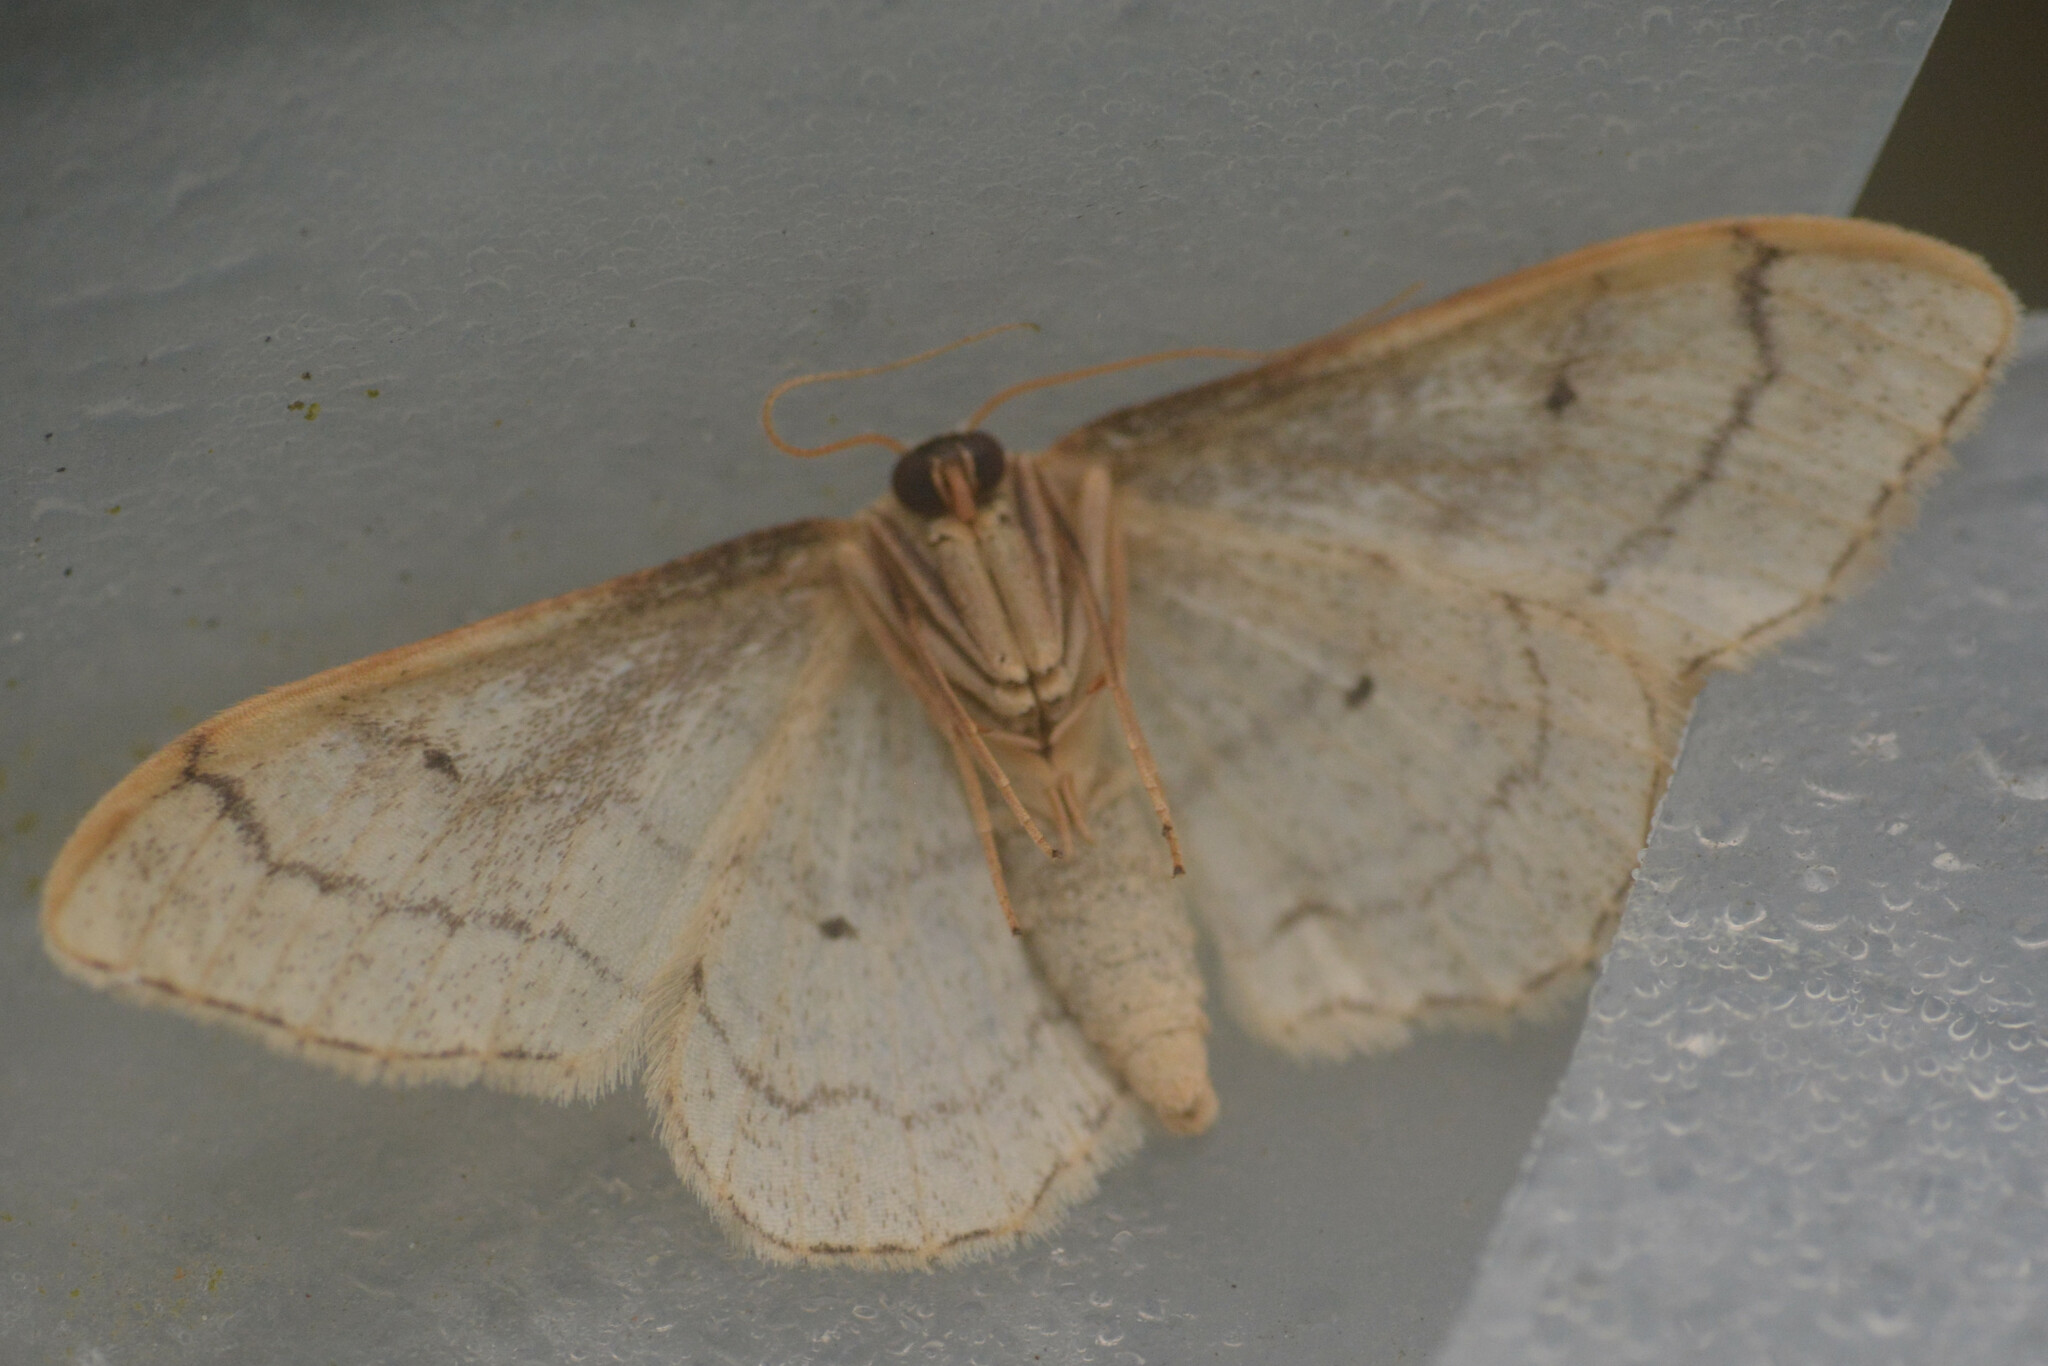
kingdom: Animalia
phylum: Arthropoda
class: Insecta
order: Lepidoptera
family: Geometridae
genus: Idaea
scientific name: Idaea aversata
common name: Riband wave
